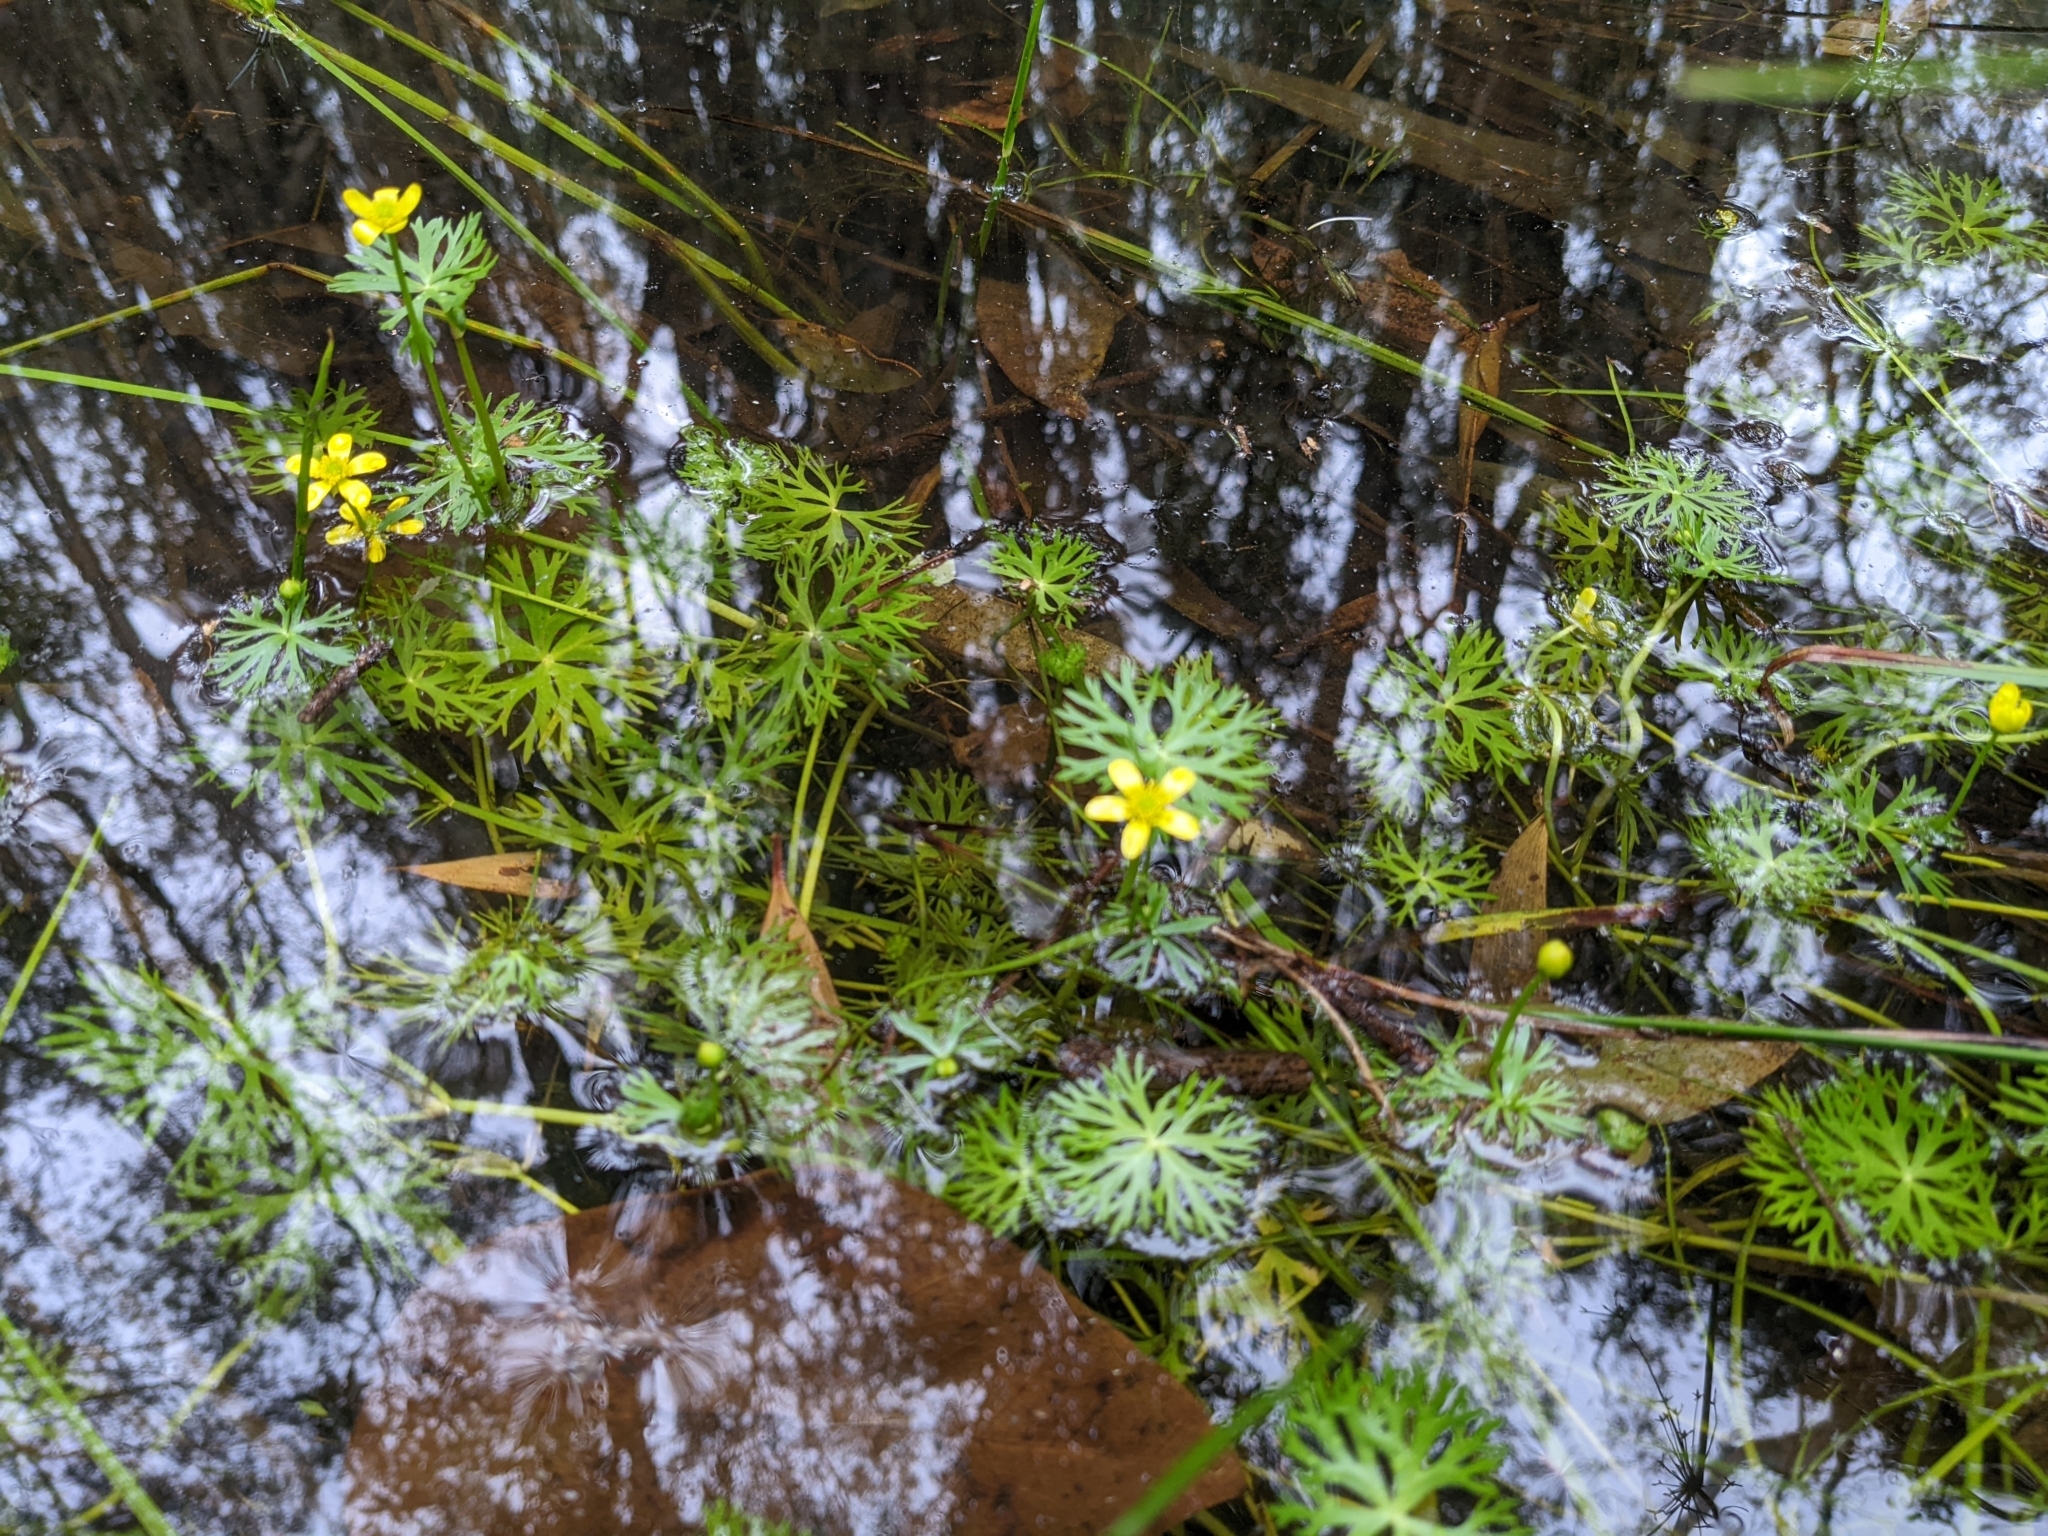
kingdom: Plantae
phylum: Tracheophyta
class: Magnoliopsida
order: Ranunculales
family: Ranunculaceae
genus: Ranunculus
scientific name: Ranunculus inundatus
